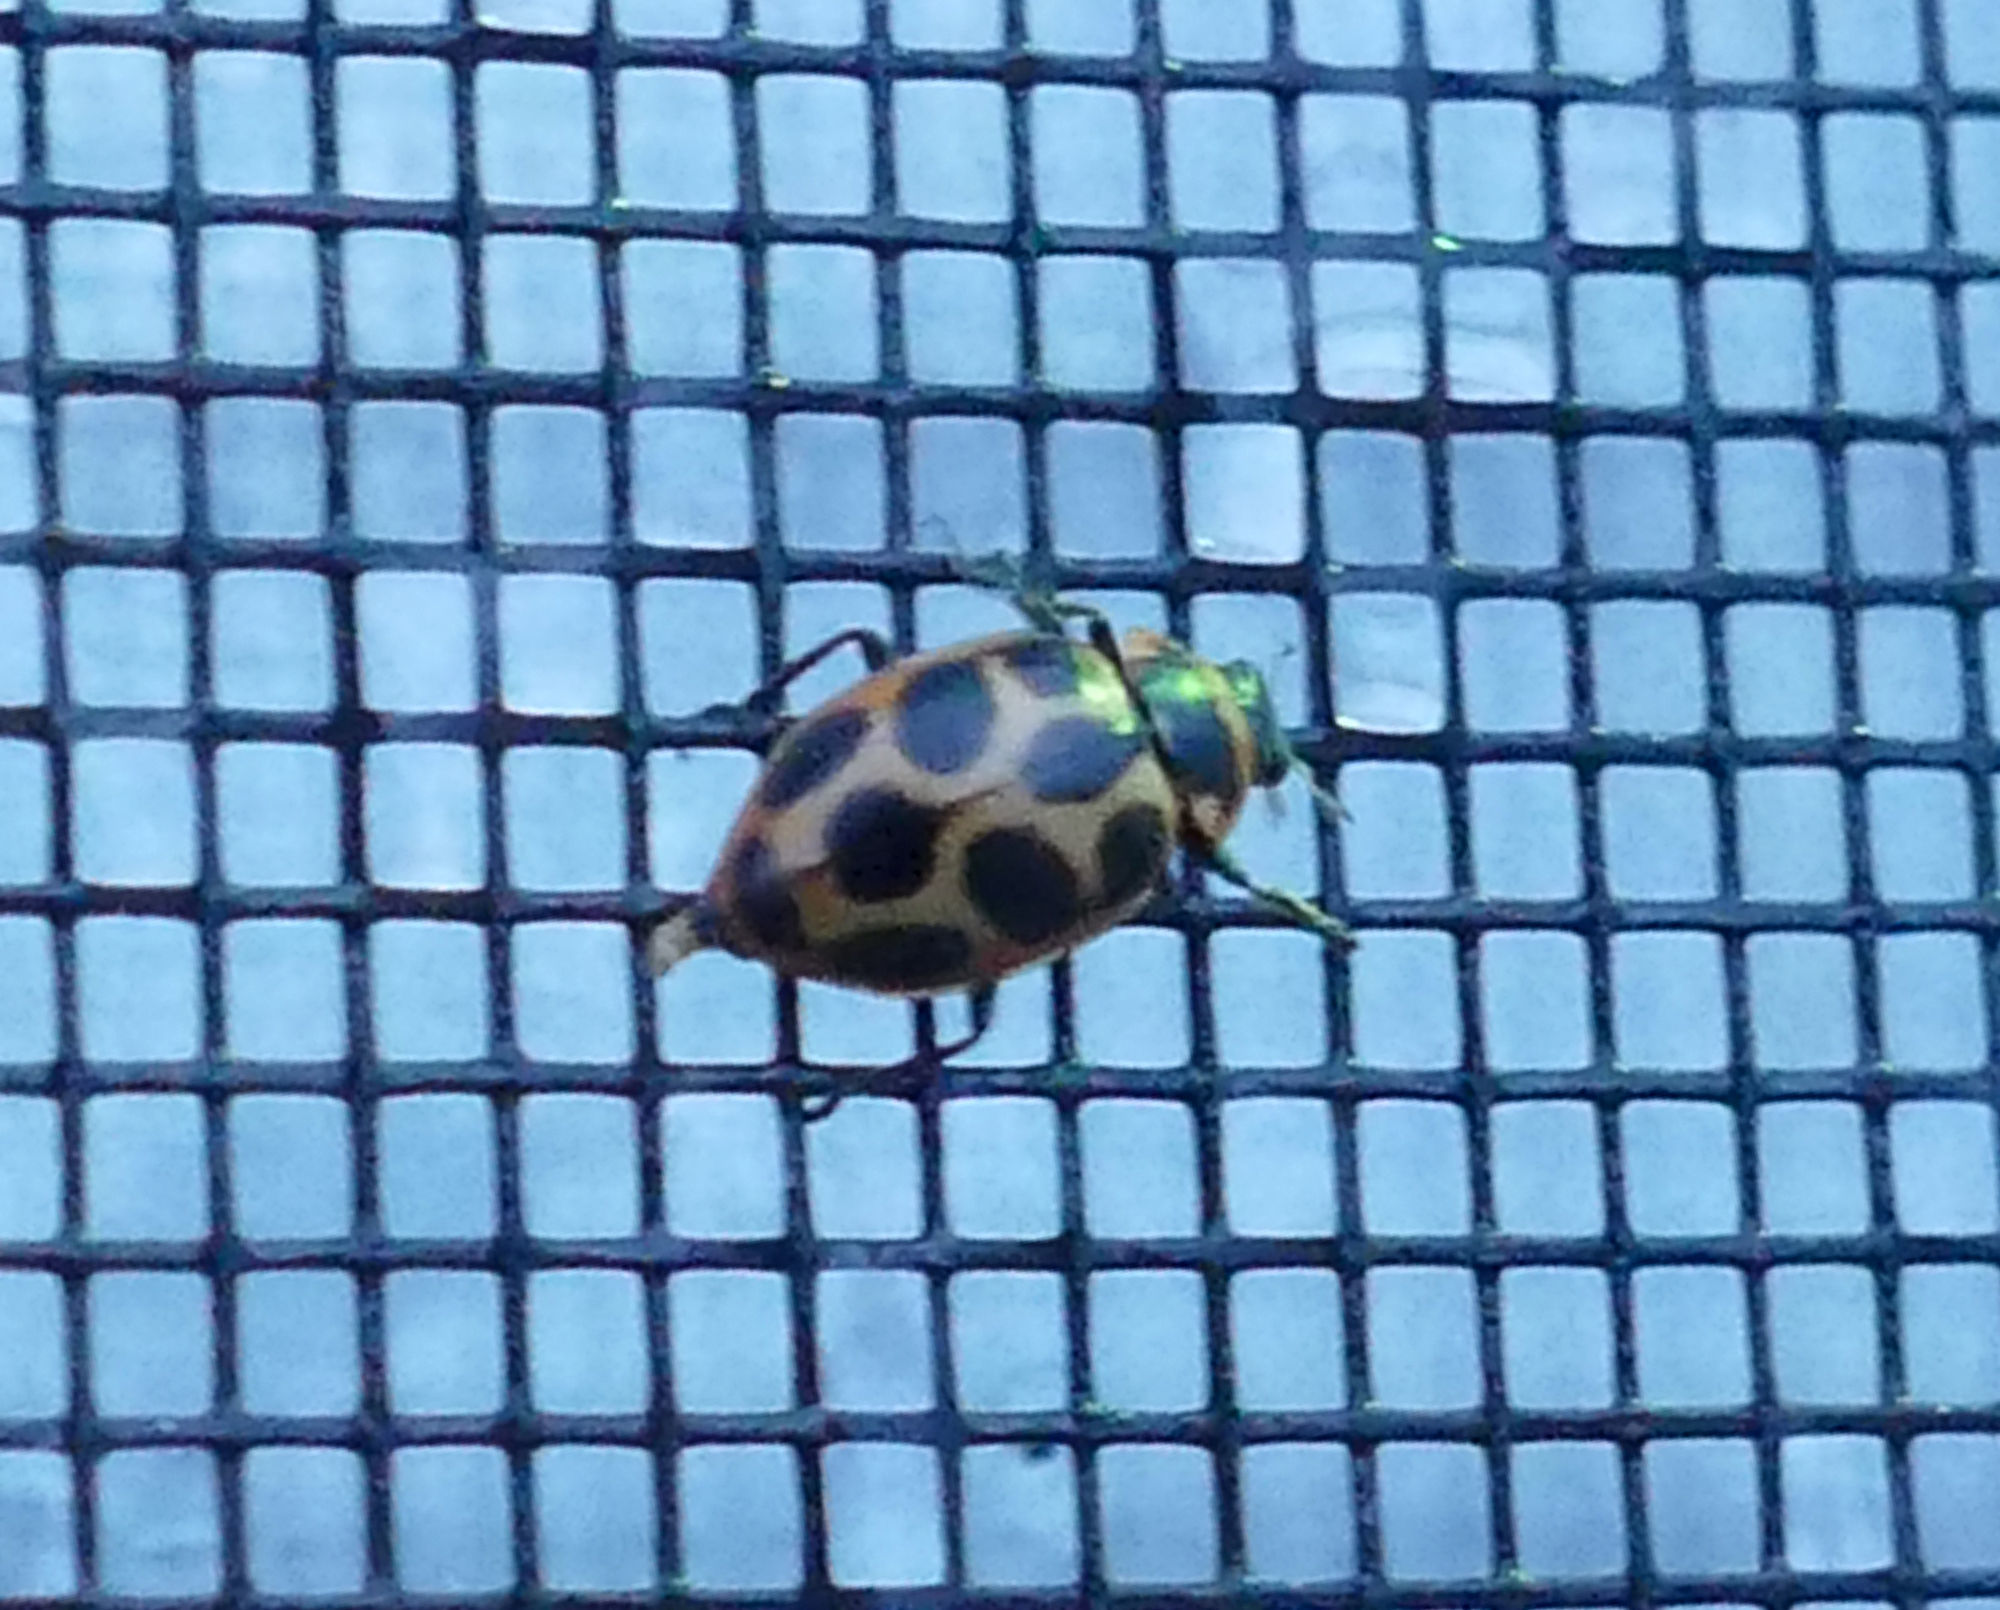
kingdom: Animalia
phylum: Arthropoda
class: Insecta
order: Coleoptera
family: Coccinellidae
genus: Naemia
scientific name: Naemia seriata
